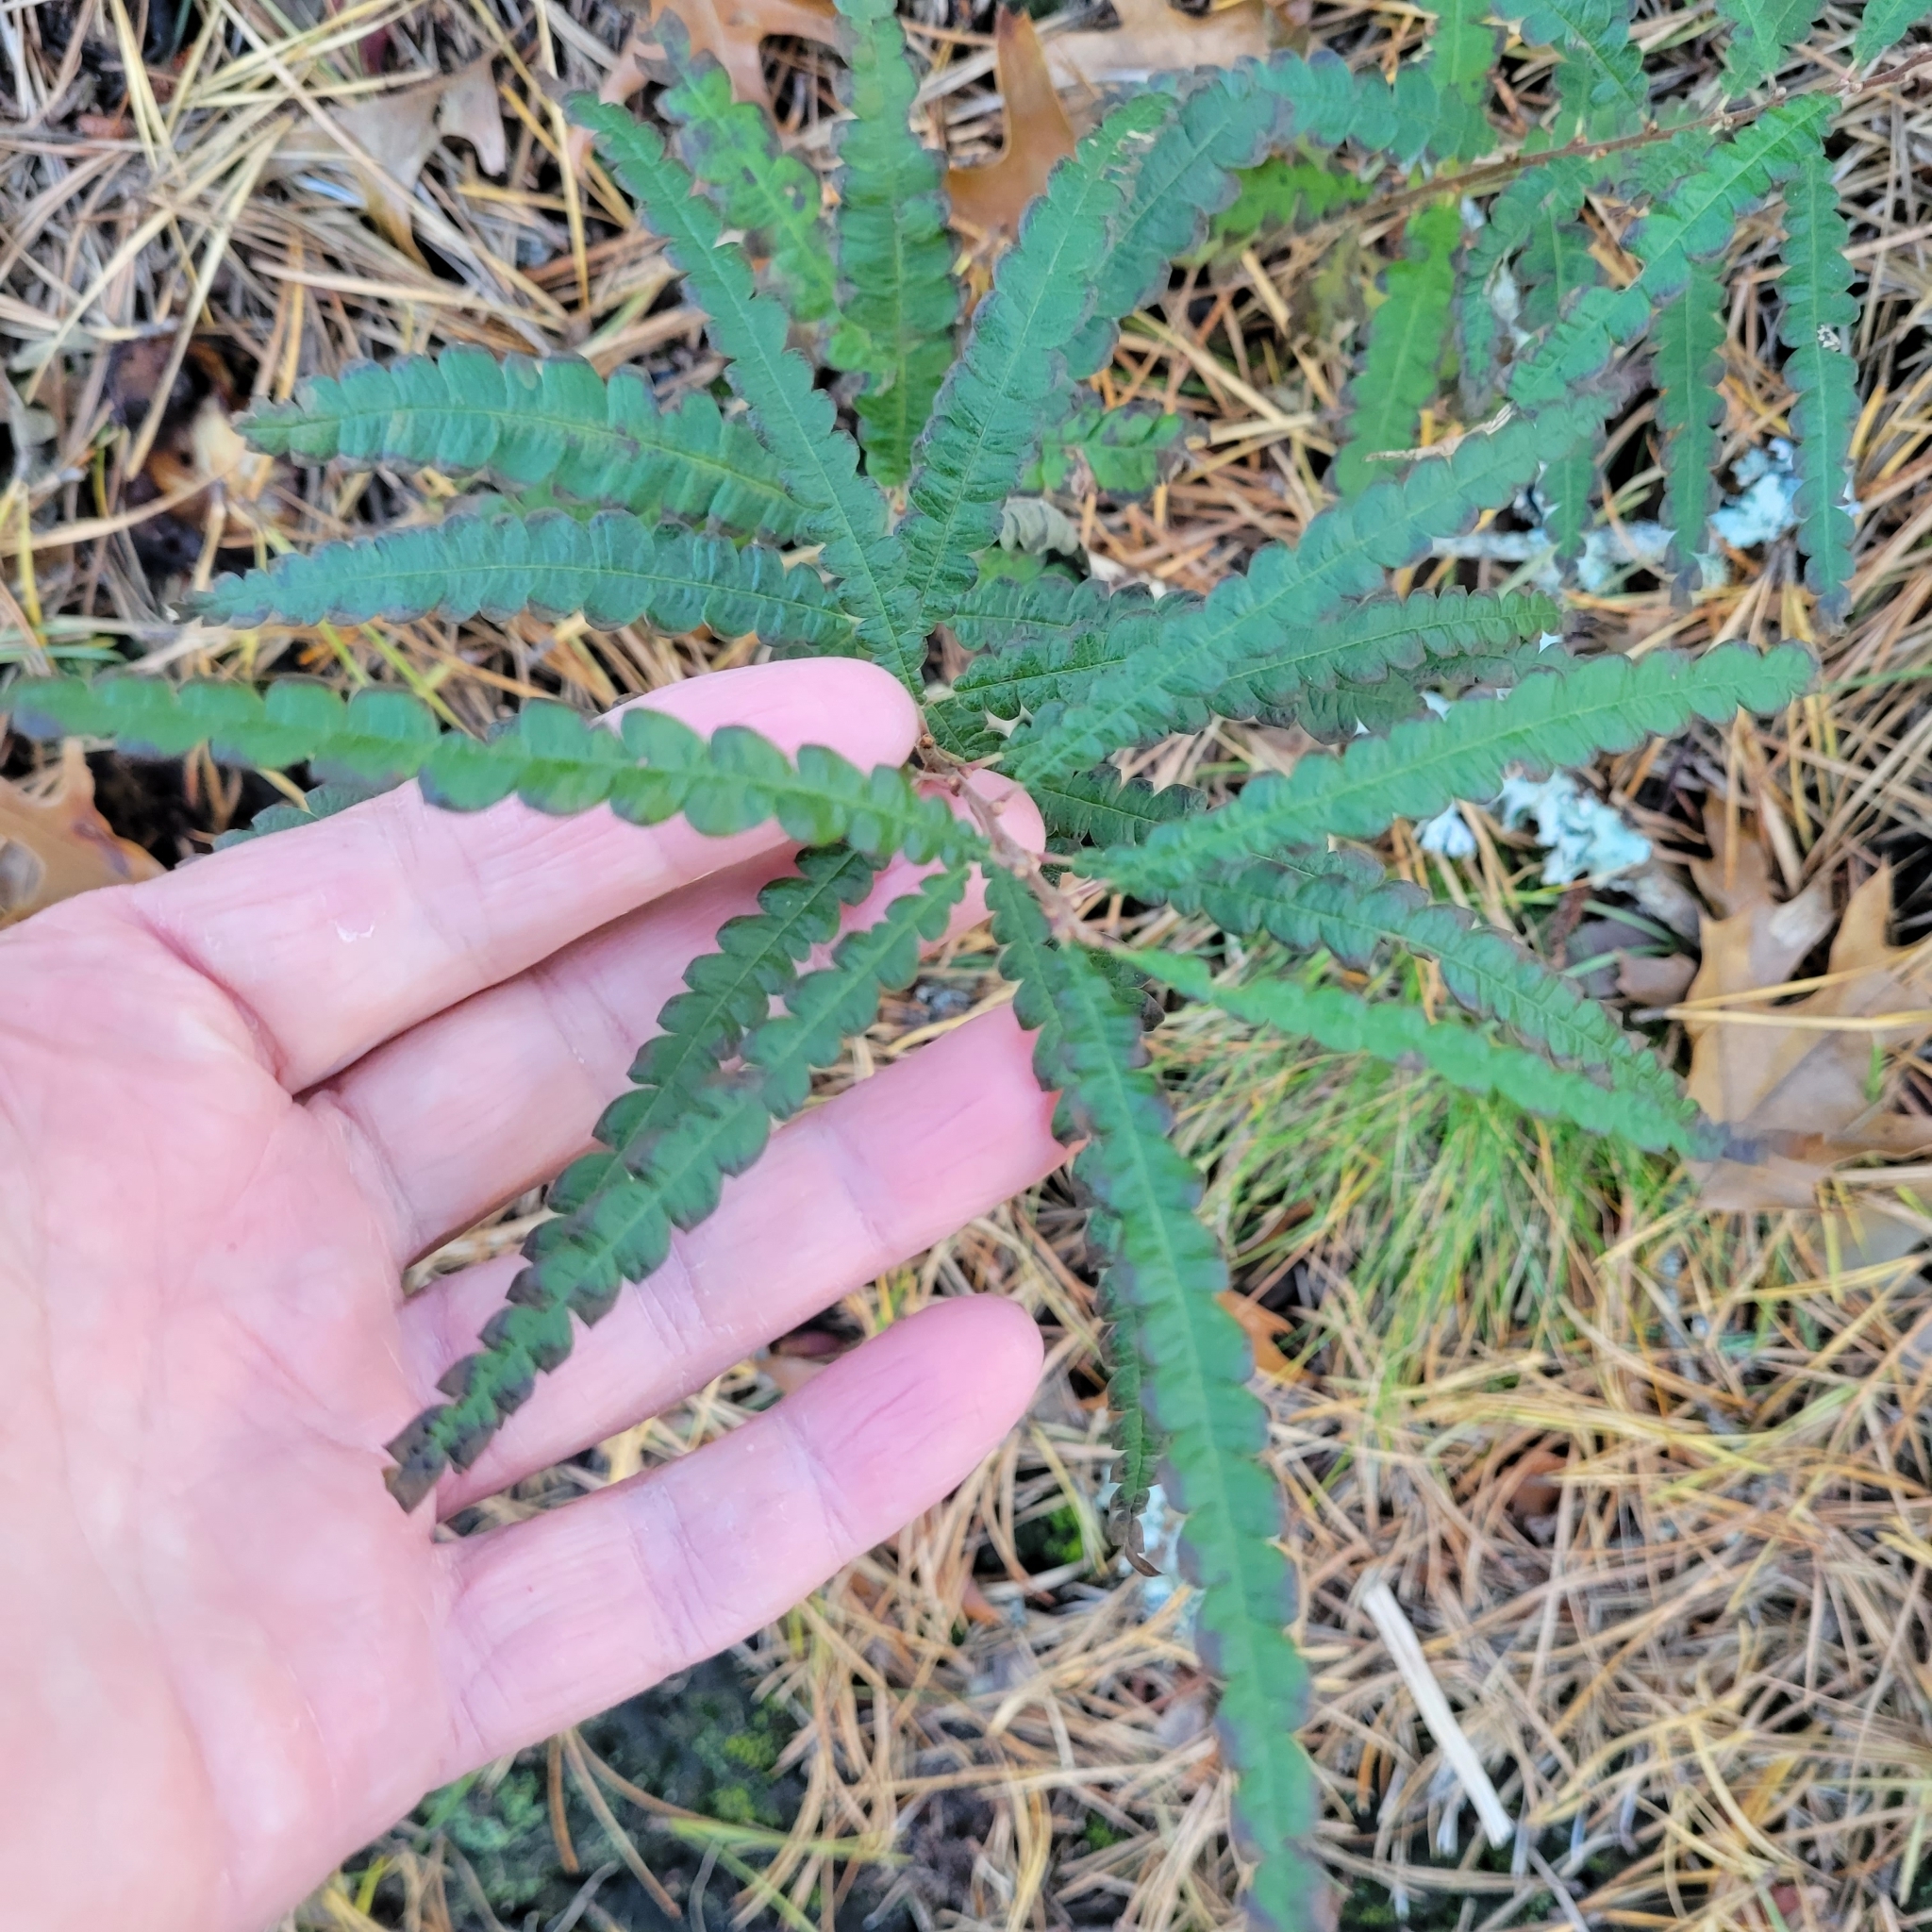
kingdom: Plantae
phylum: Tracheophyta
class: Magnoliopsida
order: Fagales
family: Myricaceae
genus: Comptonia
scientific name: Comptonia peregrina
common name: Sweet-fern
